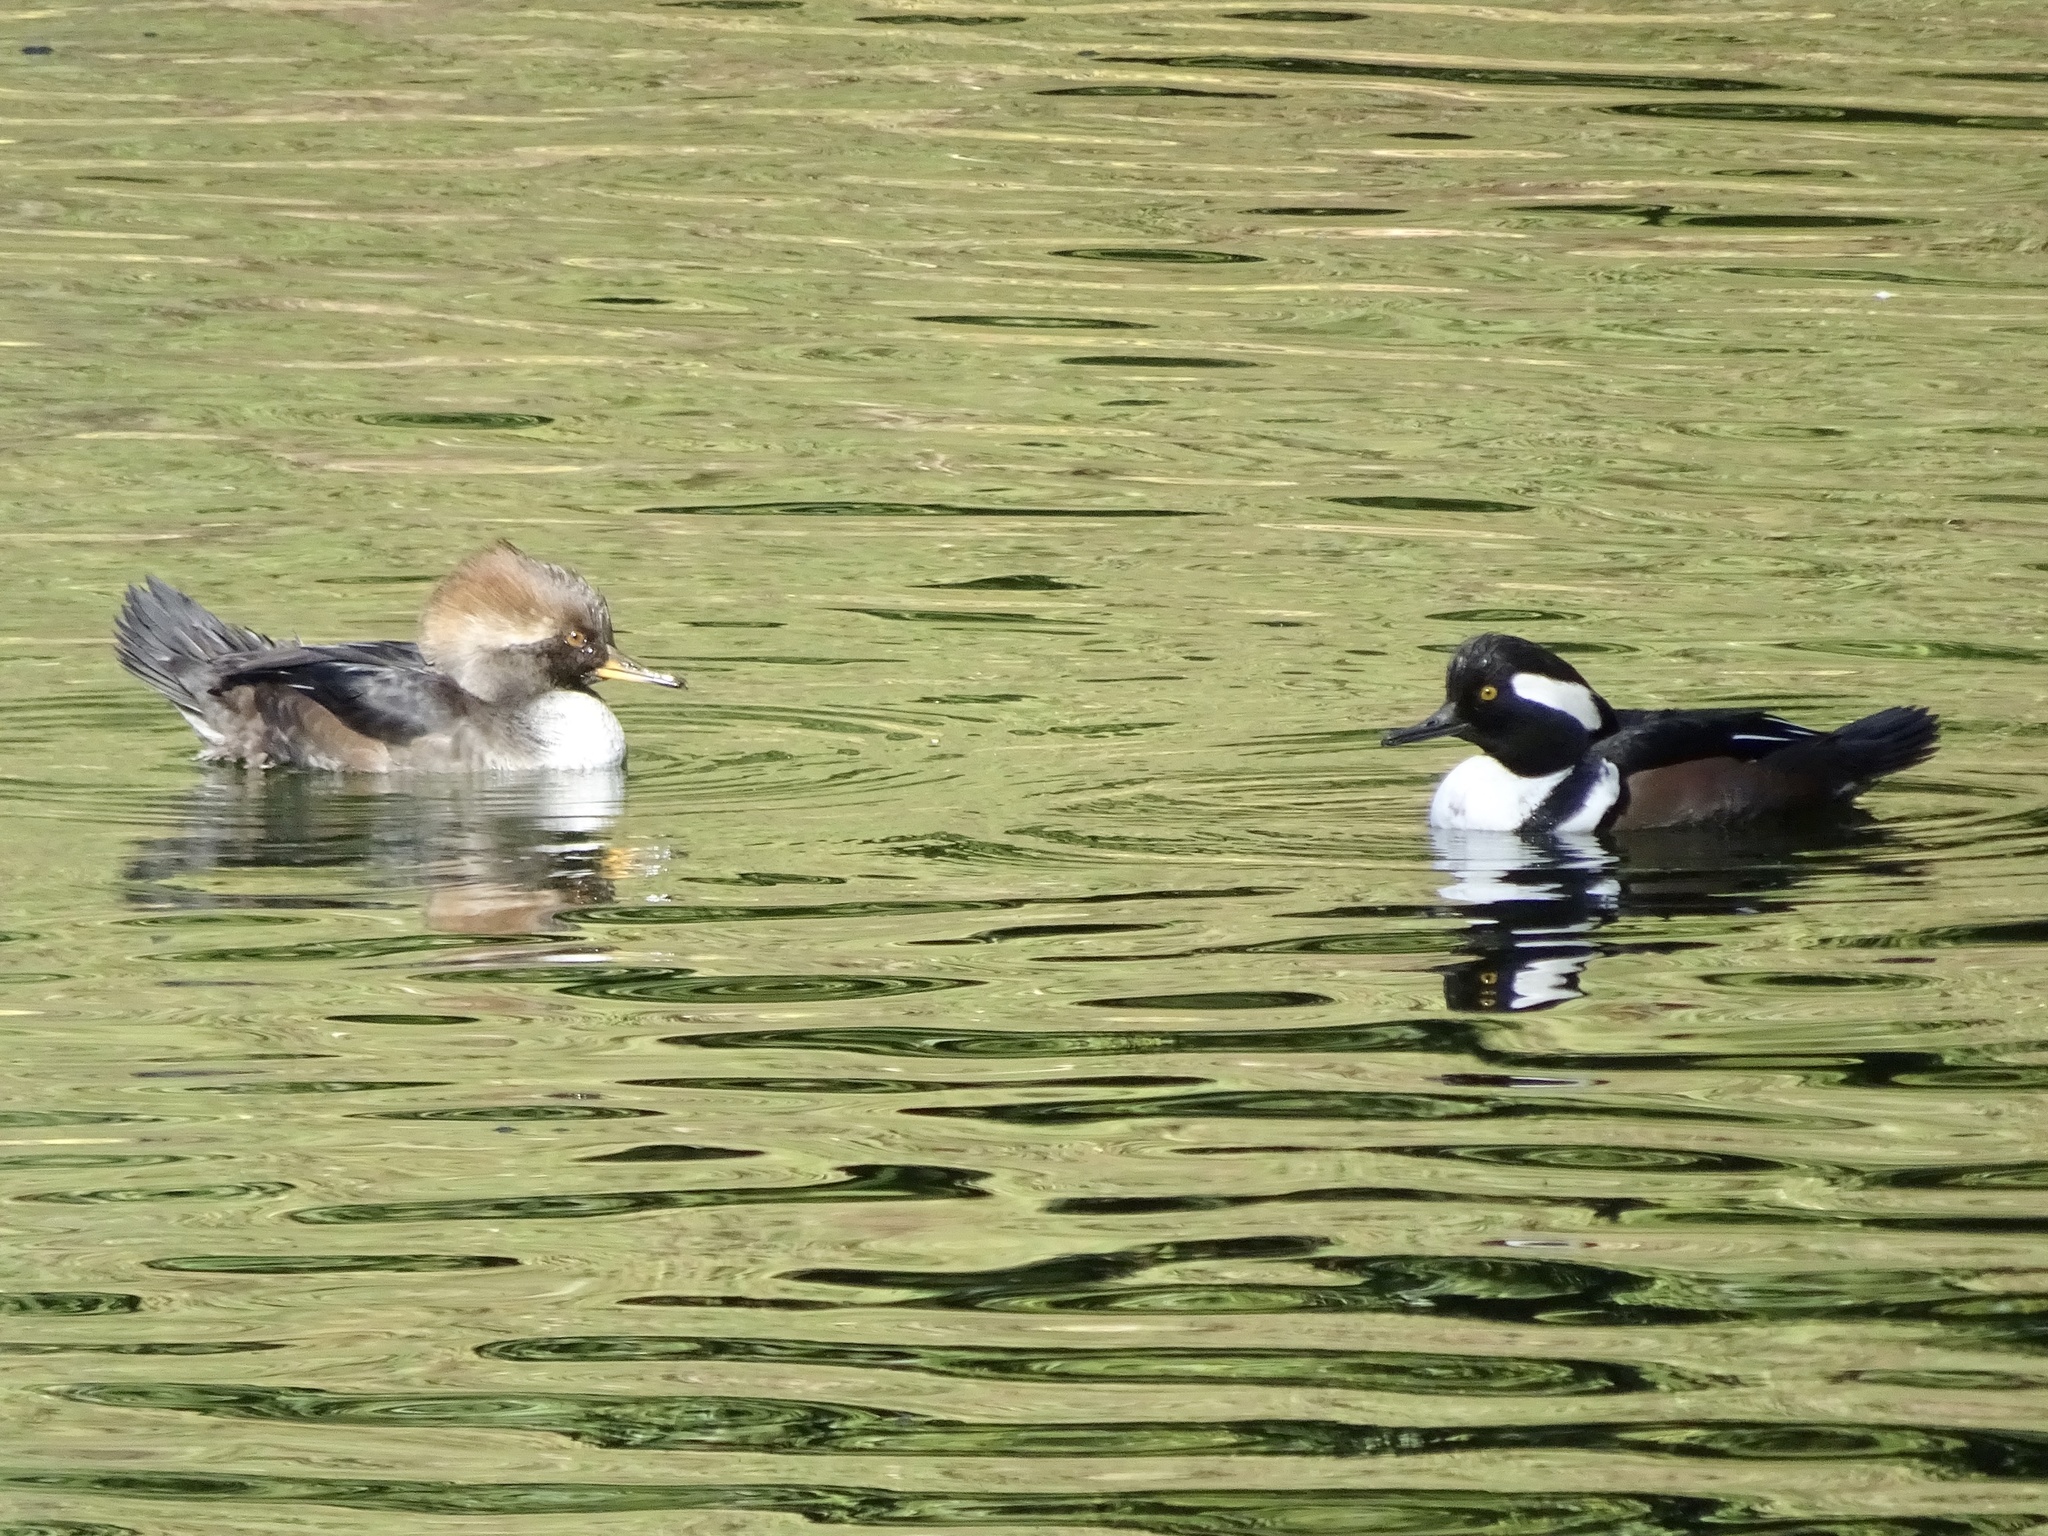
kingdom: Animalia
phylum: Chordata
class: Aves
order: Anseriformes
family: Anatidae
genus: Lophodytes
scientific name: Lophodytes cucullatus
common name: Hooded merganser
